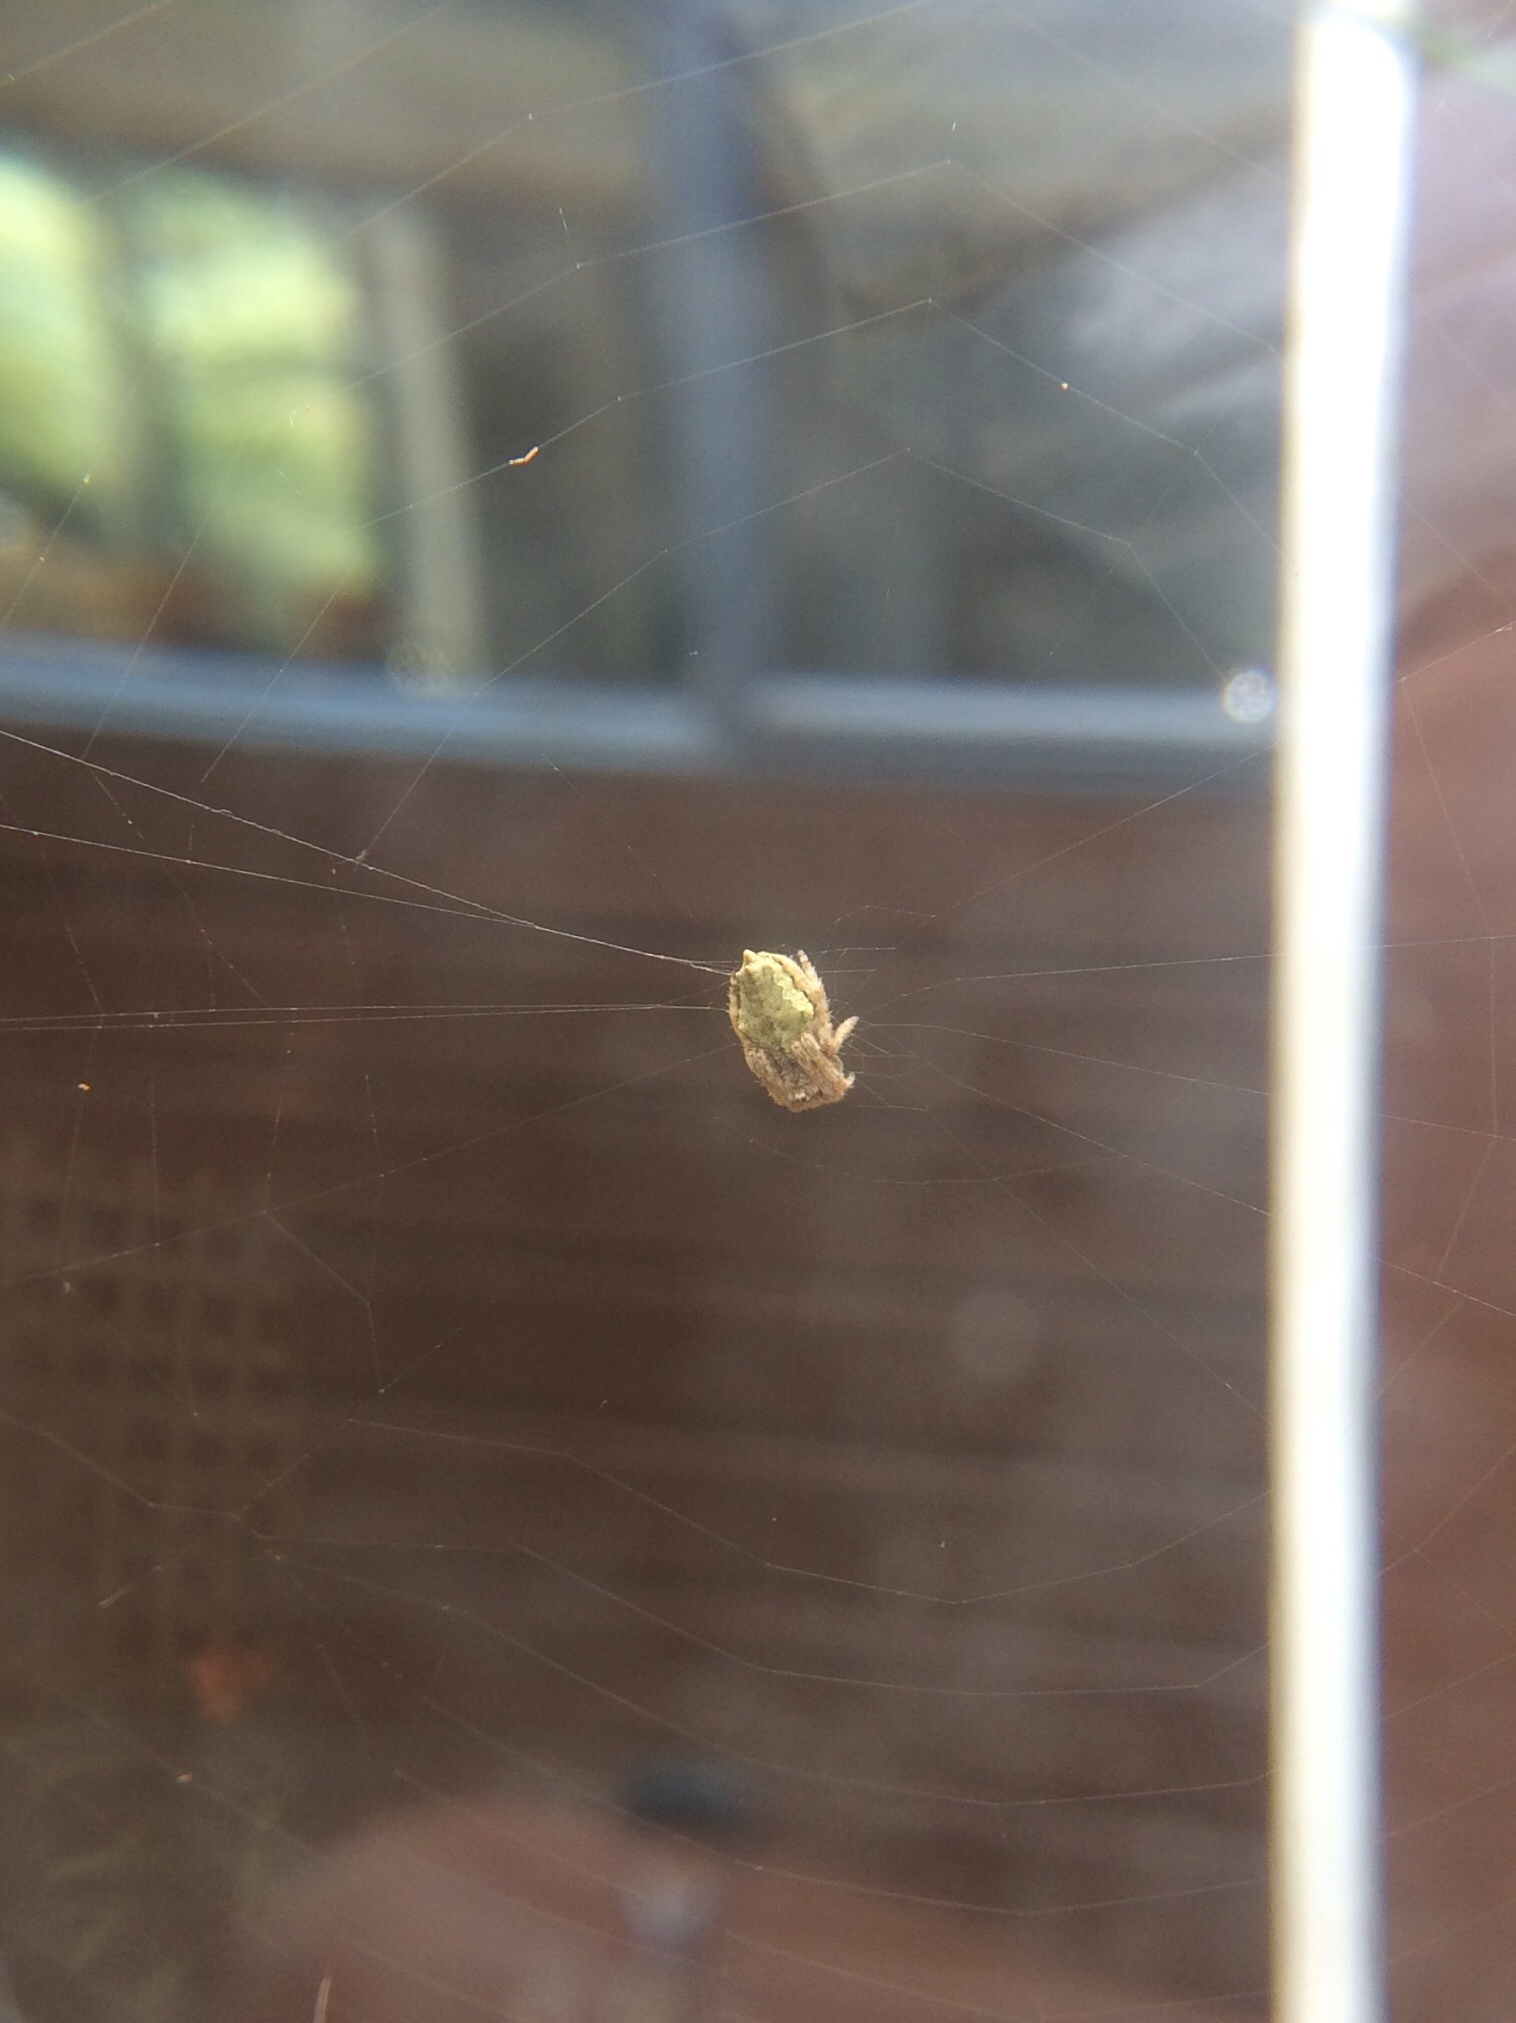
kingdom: Animalia
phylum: Arthropoda
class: Arachnida
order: Araneae
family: Araneidae
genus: Eriophora
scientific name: Eriophora pustulosa
